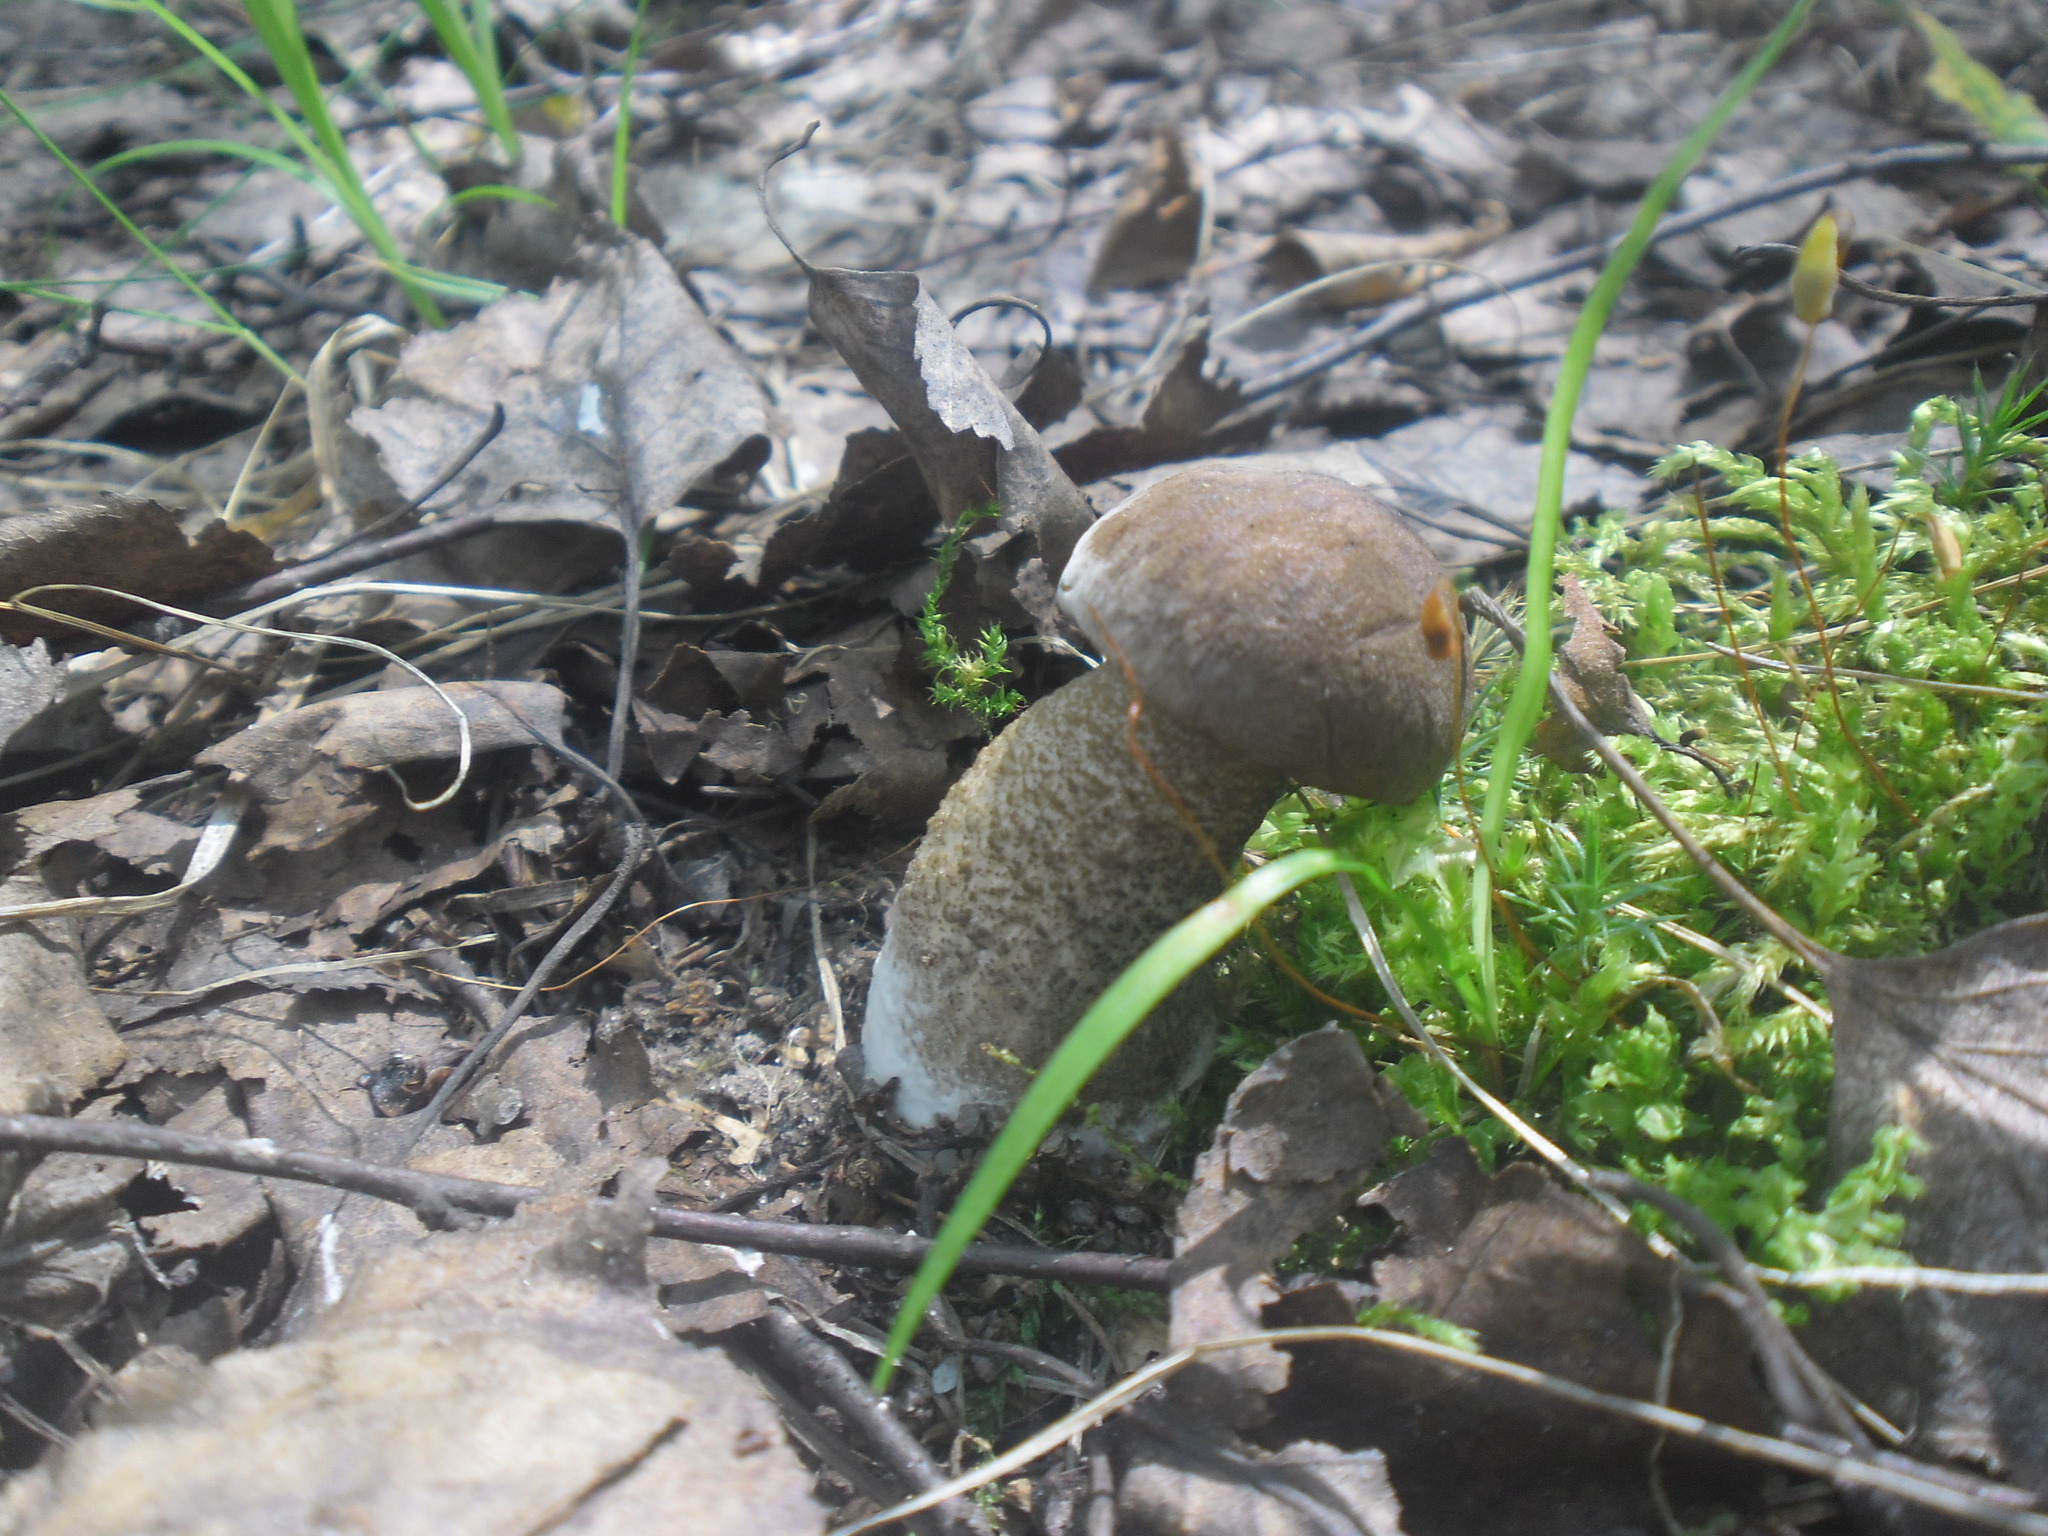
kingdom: Fungi
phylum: Basidiomycota
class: Agaricomycetes
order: Boletales
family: Boletaceae
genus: Leccinum
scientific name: Leccinum scabrum
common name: Blushing bolete
